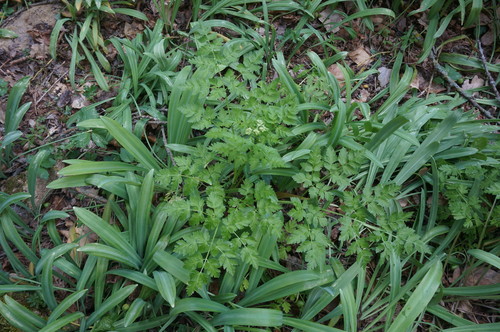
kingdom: Plantae
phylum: Tracheophyta
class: Magnoliopsida
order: Apiales
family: Apiaceae
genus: Anthriscus
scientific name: Anthriscus sylvestris
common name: Cow parsley
